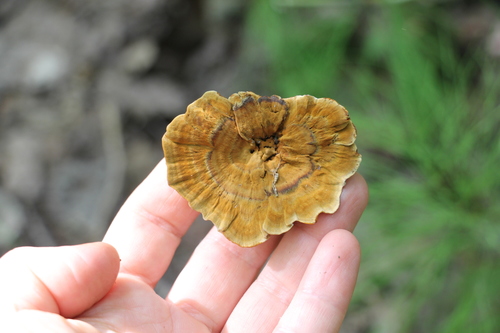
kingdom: Fungi
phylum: Basidiomycota
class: Agaricomycetes
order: Hymenochaetales
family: Hymenochaetaceae
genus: Coltricia
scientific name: Coltricia perennis
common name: Tiger's eye
